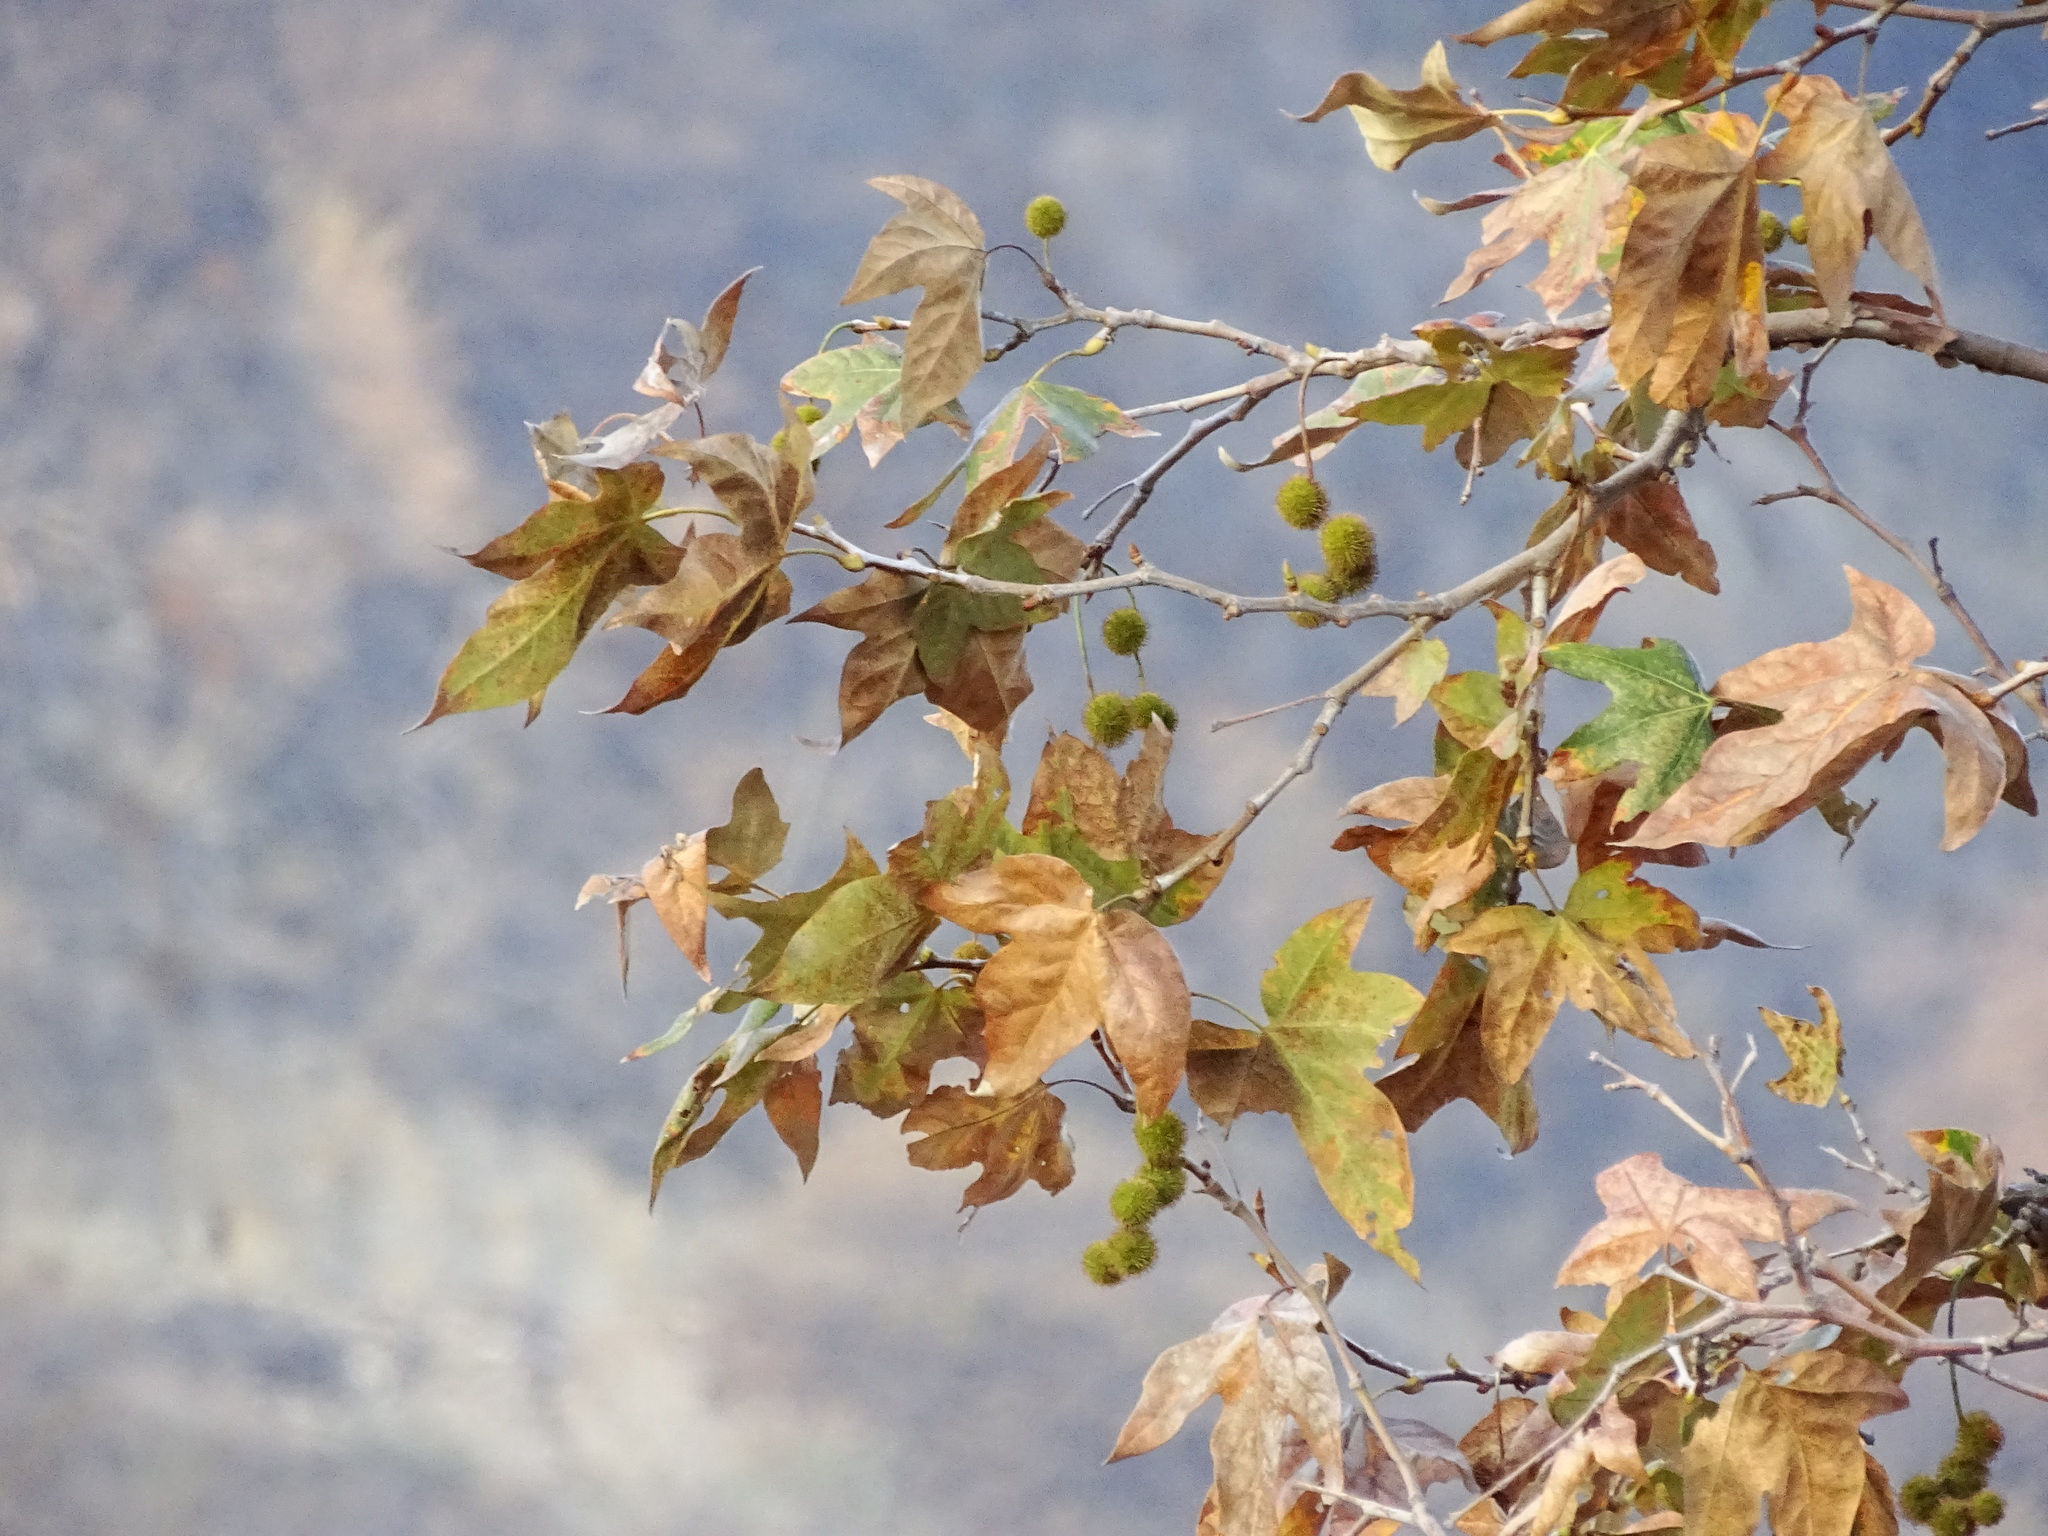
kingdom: Plantae
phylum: Tracheophyta
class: Magnoliopsida
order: Proteales
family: Platanaceae
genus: Platanus
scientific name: Platanus racemosa
